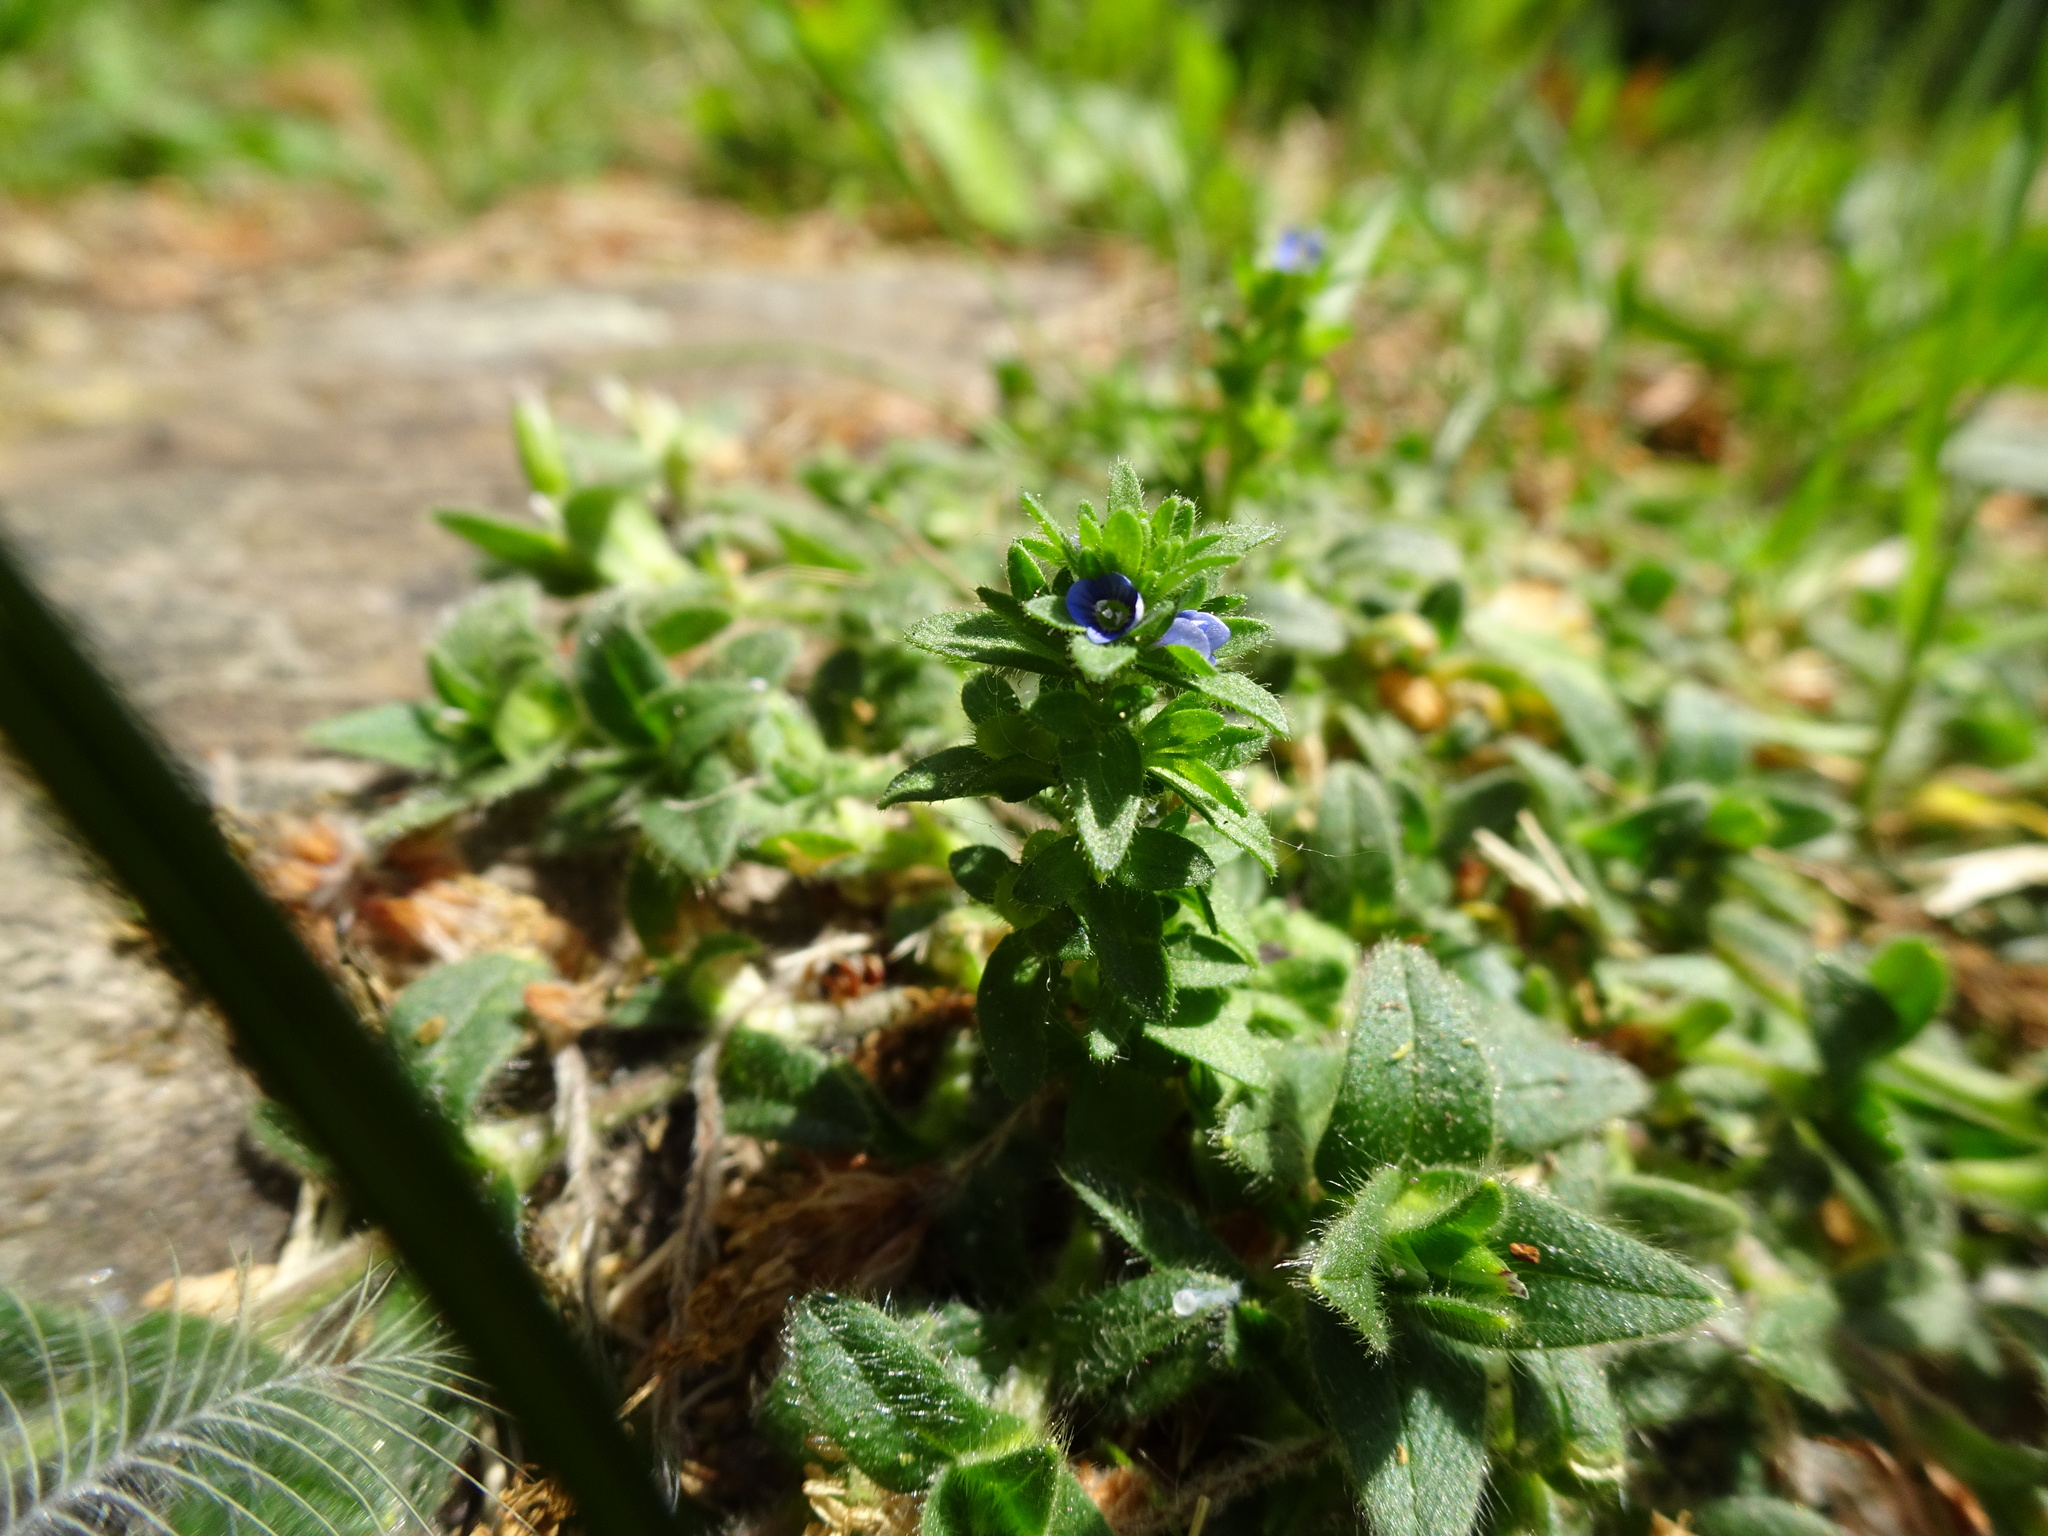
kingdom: Plantae
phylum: Tracheophyta
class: Magnoliopsida
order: Lamiales
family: Plantaginaceae
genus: Veronica
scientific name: Veronica arvensis
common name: Corn speedwell
